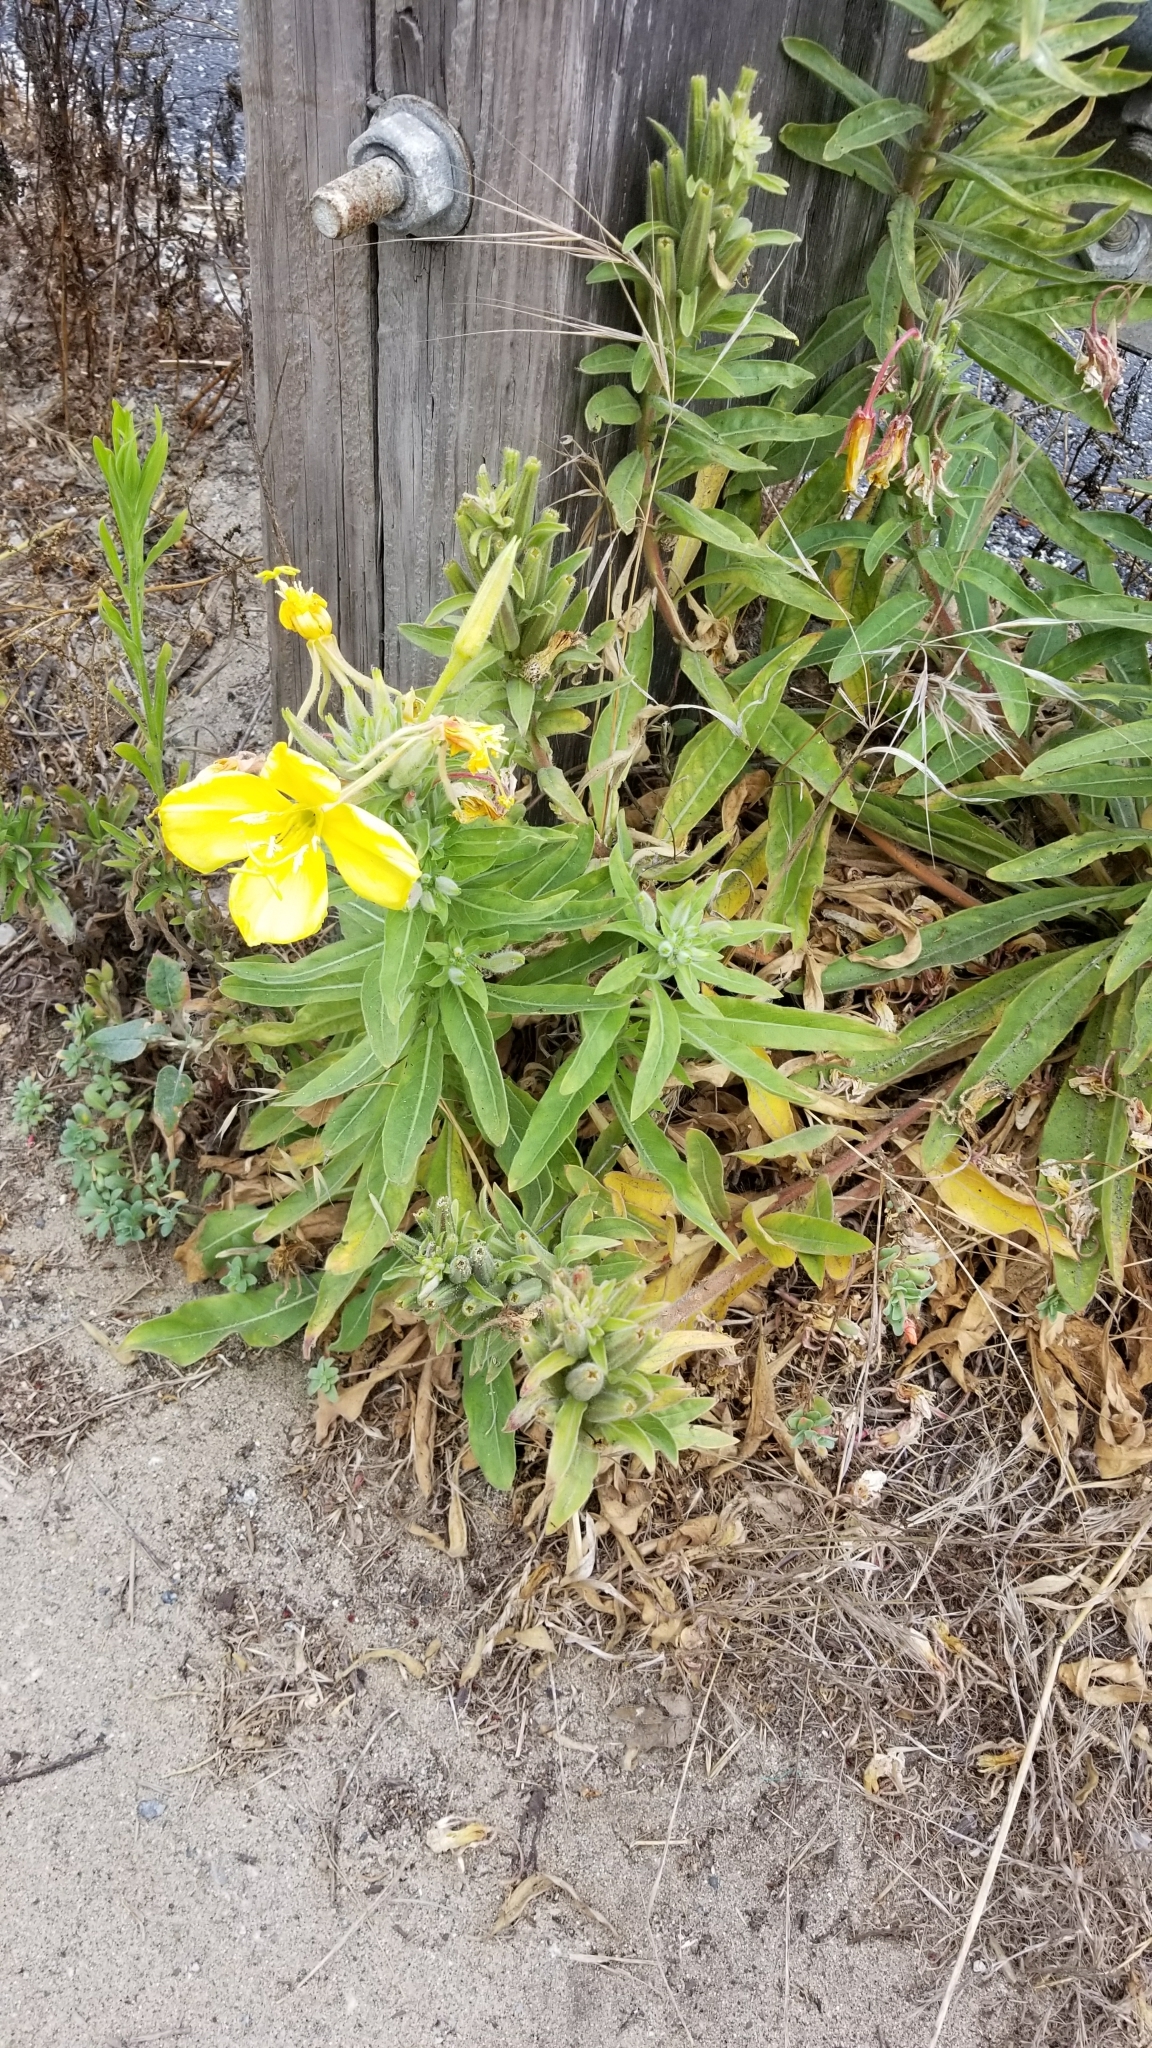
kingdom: Plantae
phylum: Tracheophyta
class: Magnoliopsida
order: Myrtales
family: Onagraceae
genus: Oenothera
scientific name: Oenothera elata
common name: Hooker's evening-primrose
